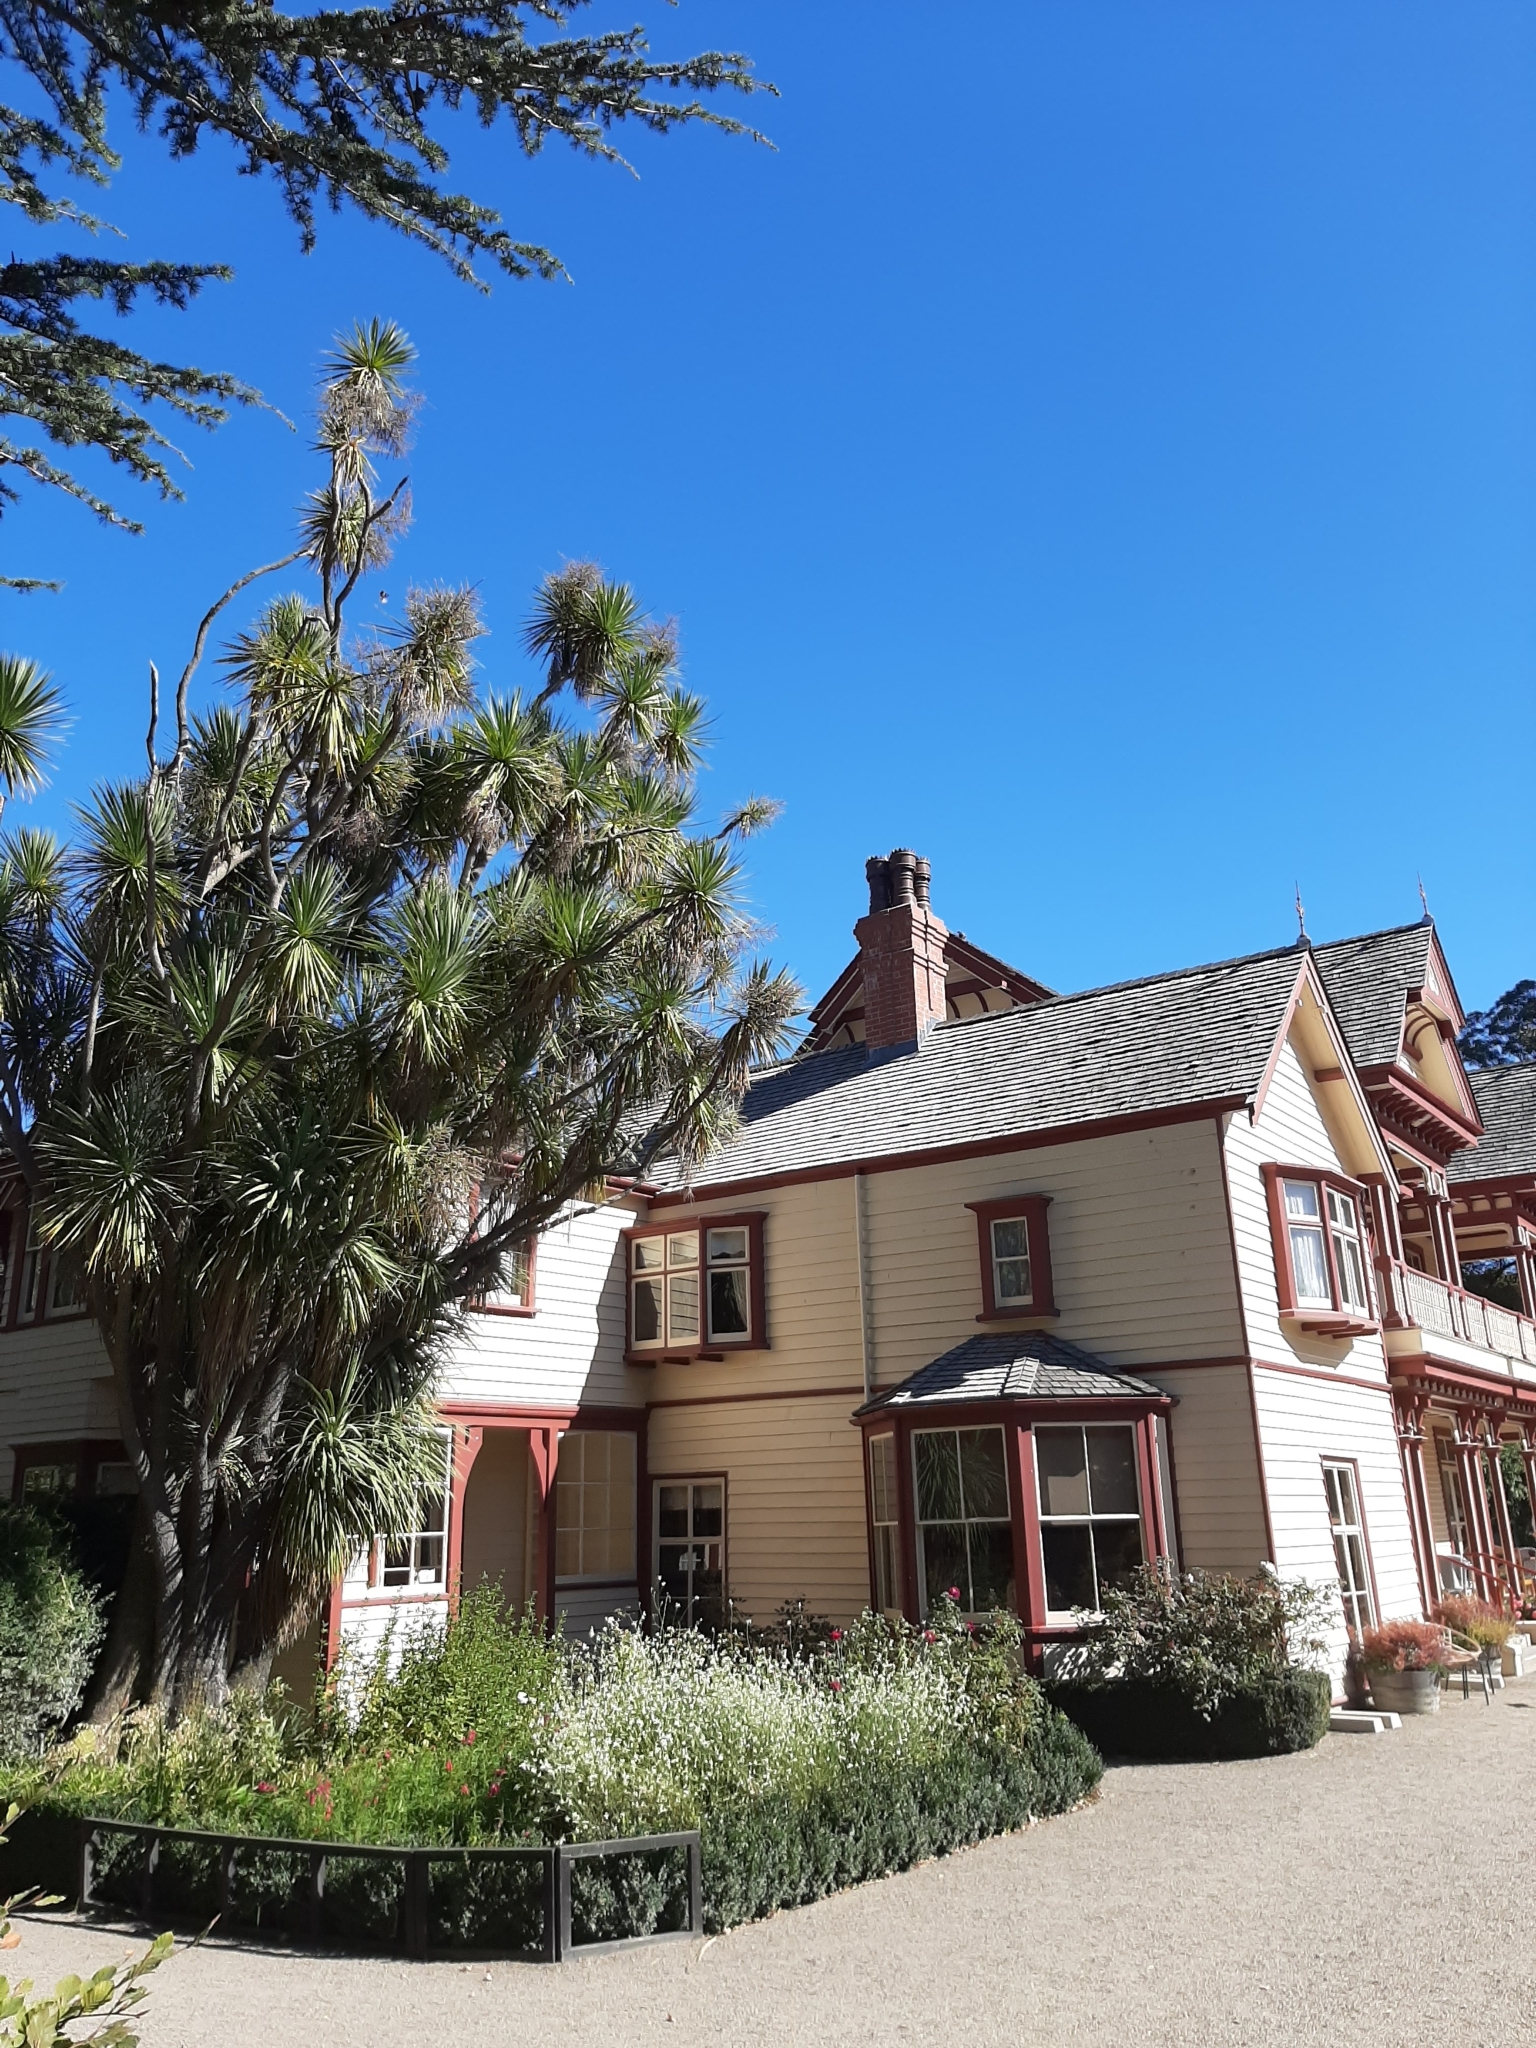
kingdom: Plantae
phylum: Tracheophyta
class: Liliopsida
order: Asparagales
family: Asparagaceae
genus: Cordyline
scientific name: Cordyline australis
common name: Cabbage-palm
